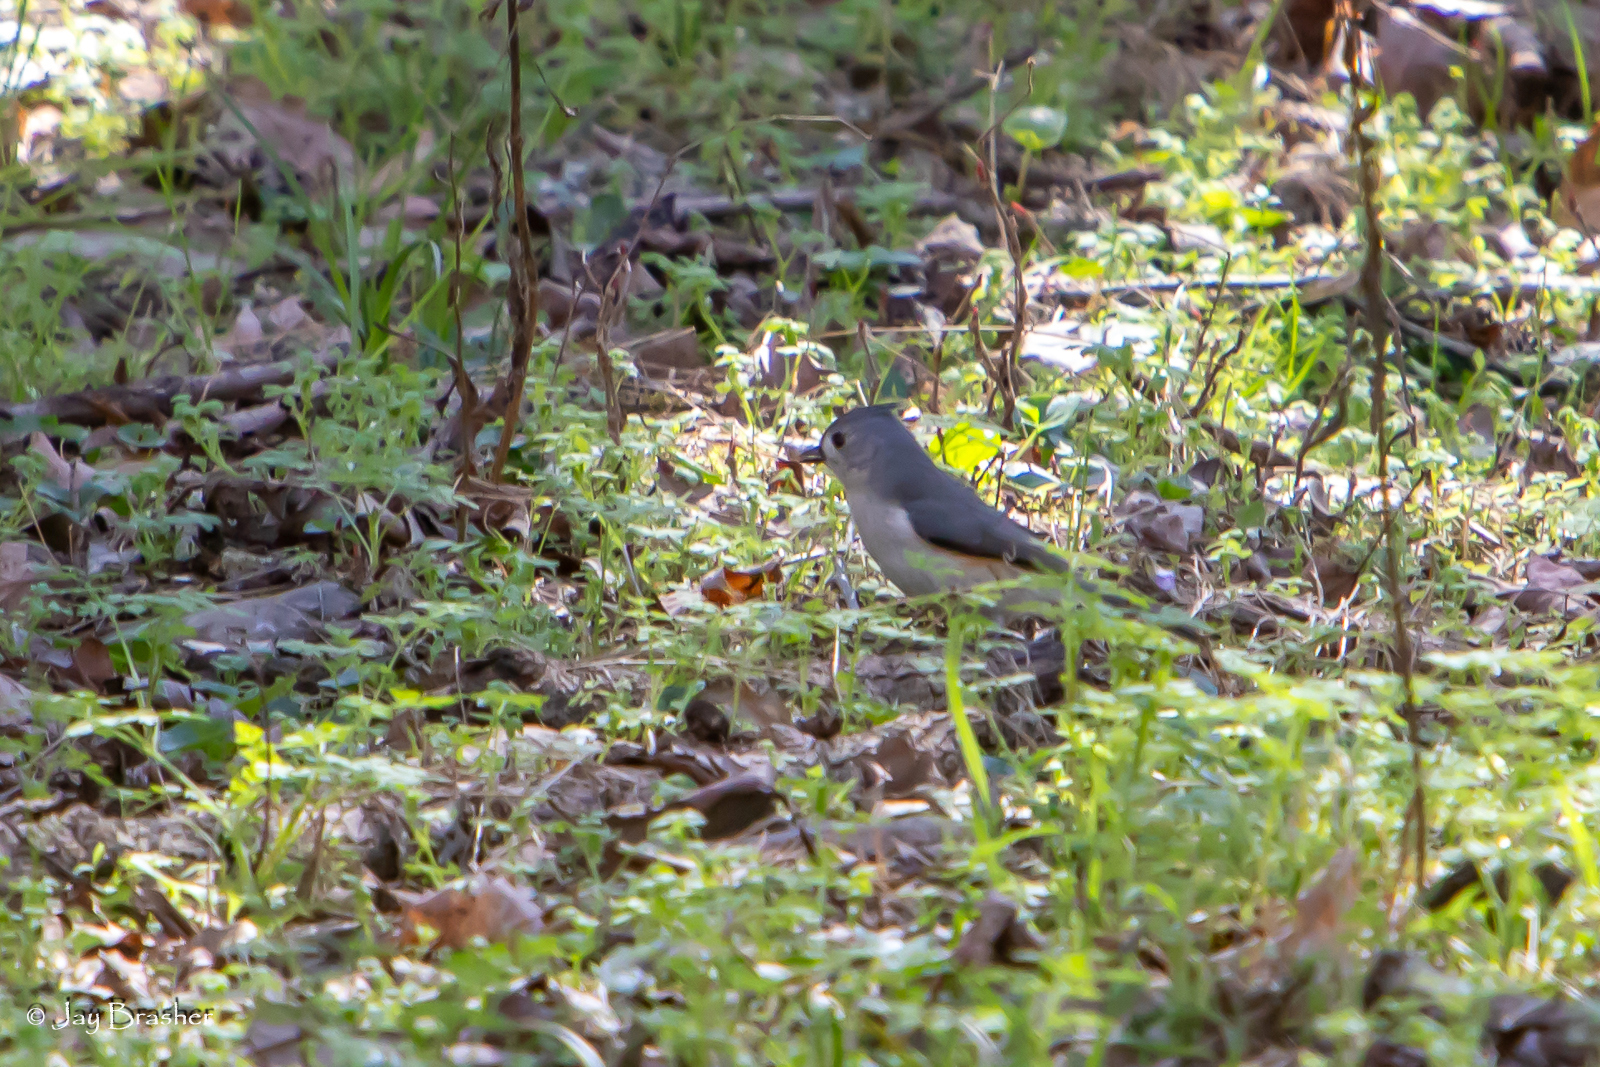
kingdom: Animalia
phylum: Chordata
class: Aves
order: Passeriformes
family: Paridae
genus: Baeolophus
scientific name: Baeolophus bicolor
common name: Tufted titmouse
